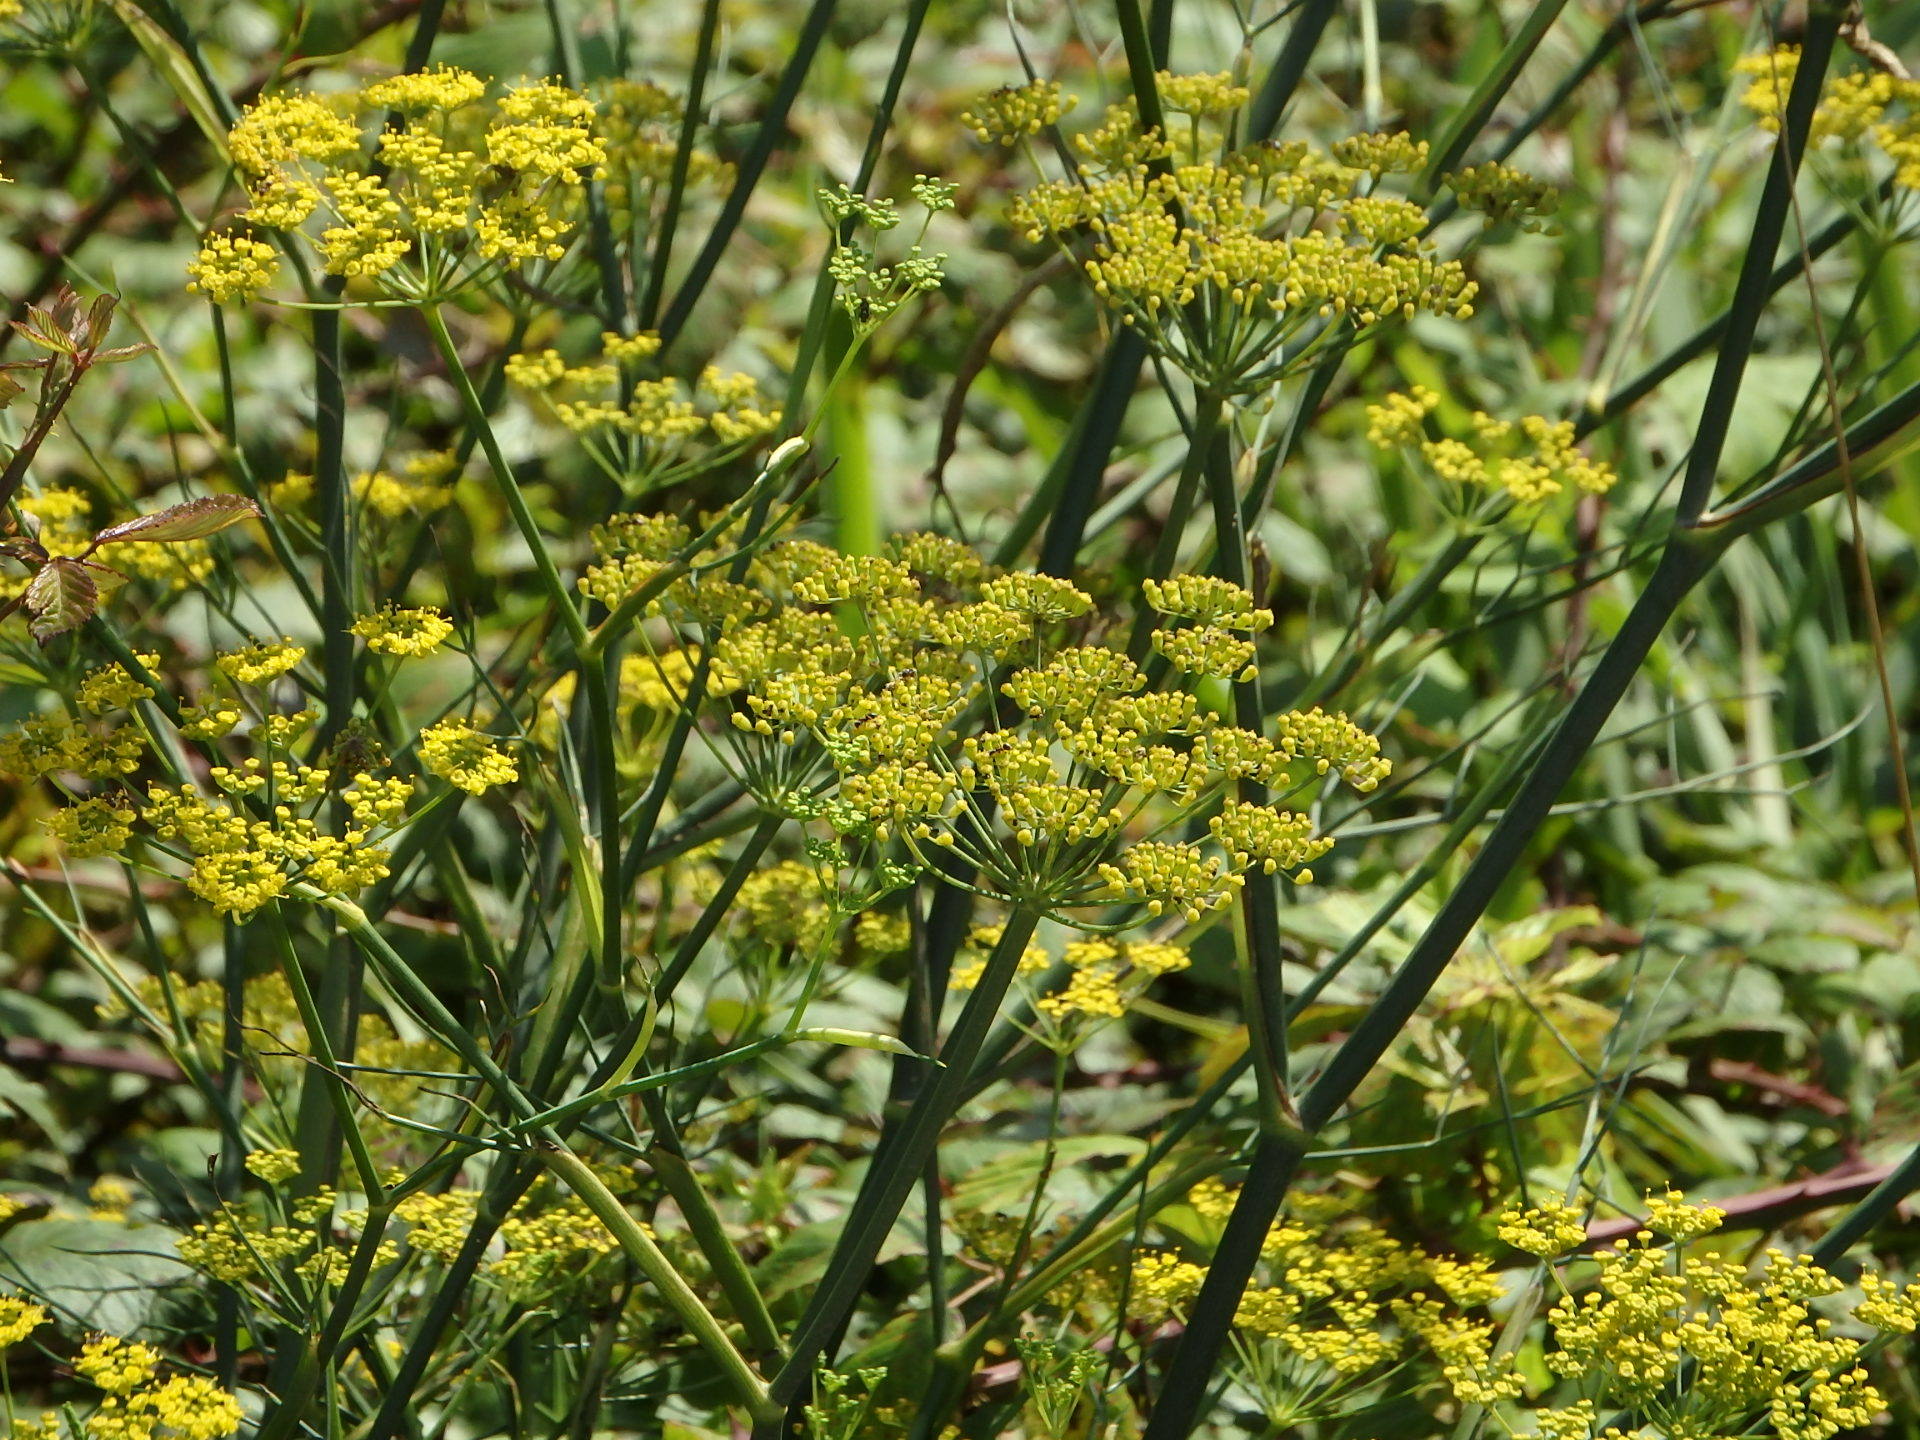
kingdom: Plantae
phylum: Tracheophyta
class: Magnoliopsida
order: Apiales
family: Apiaceae
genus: Foeniculum
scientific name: Foeniculum vulgare
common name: Fennel
